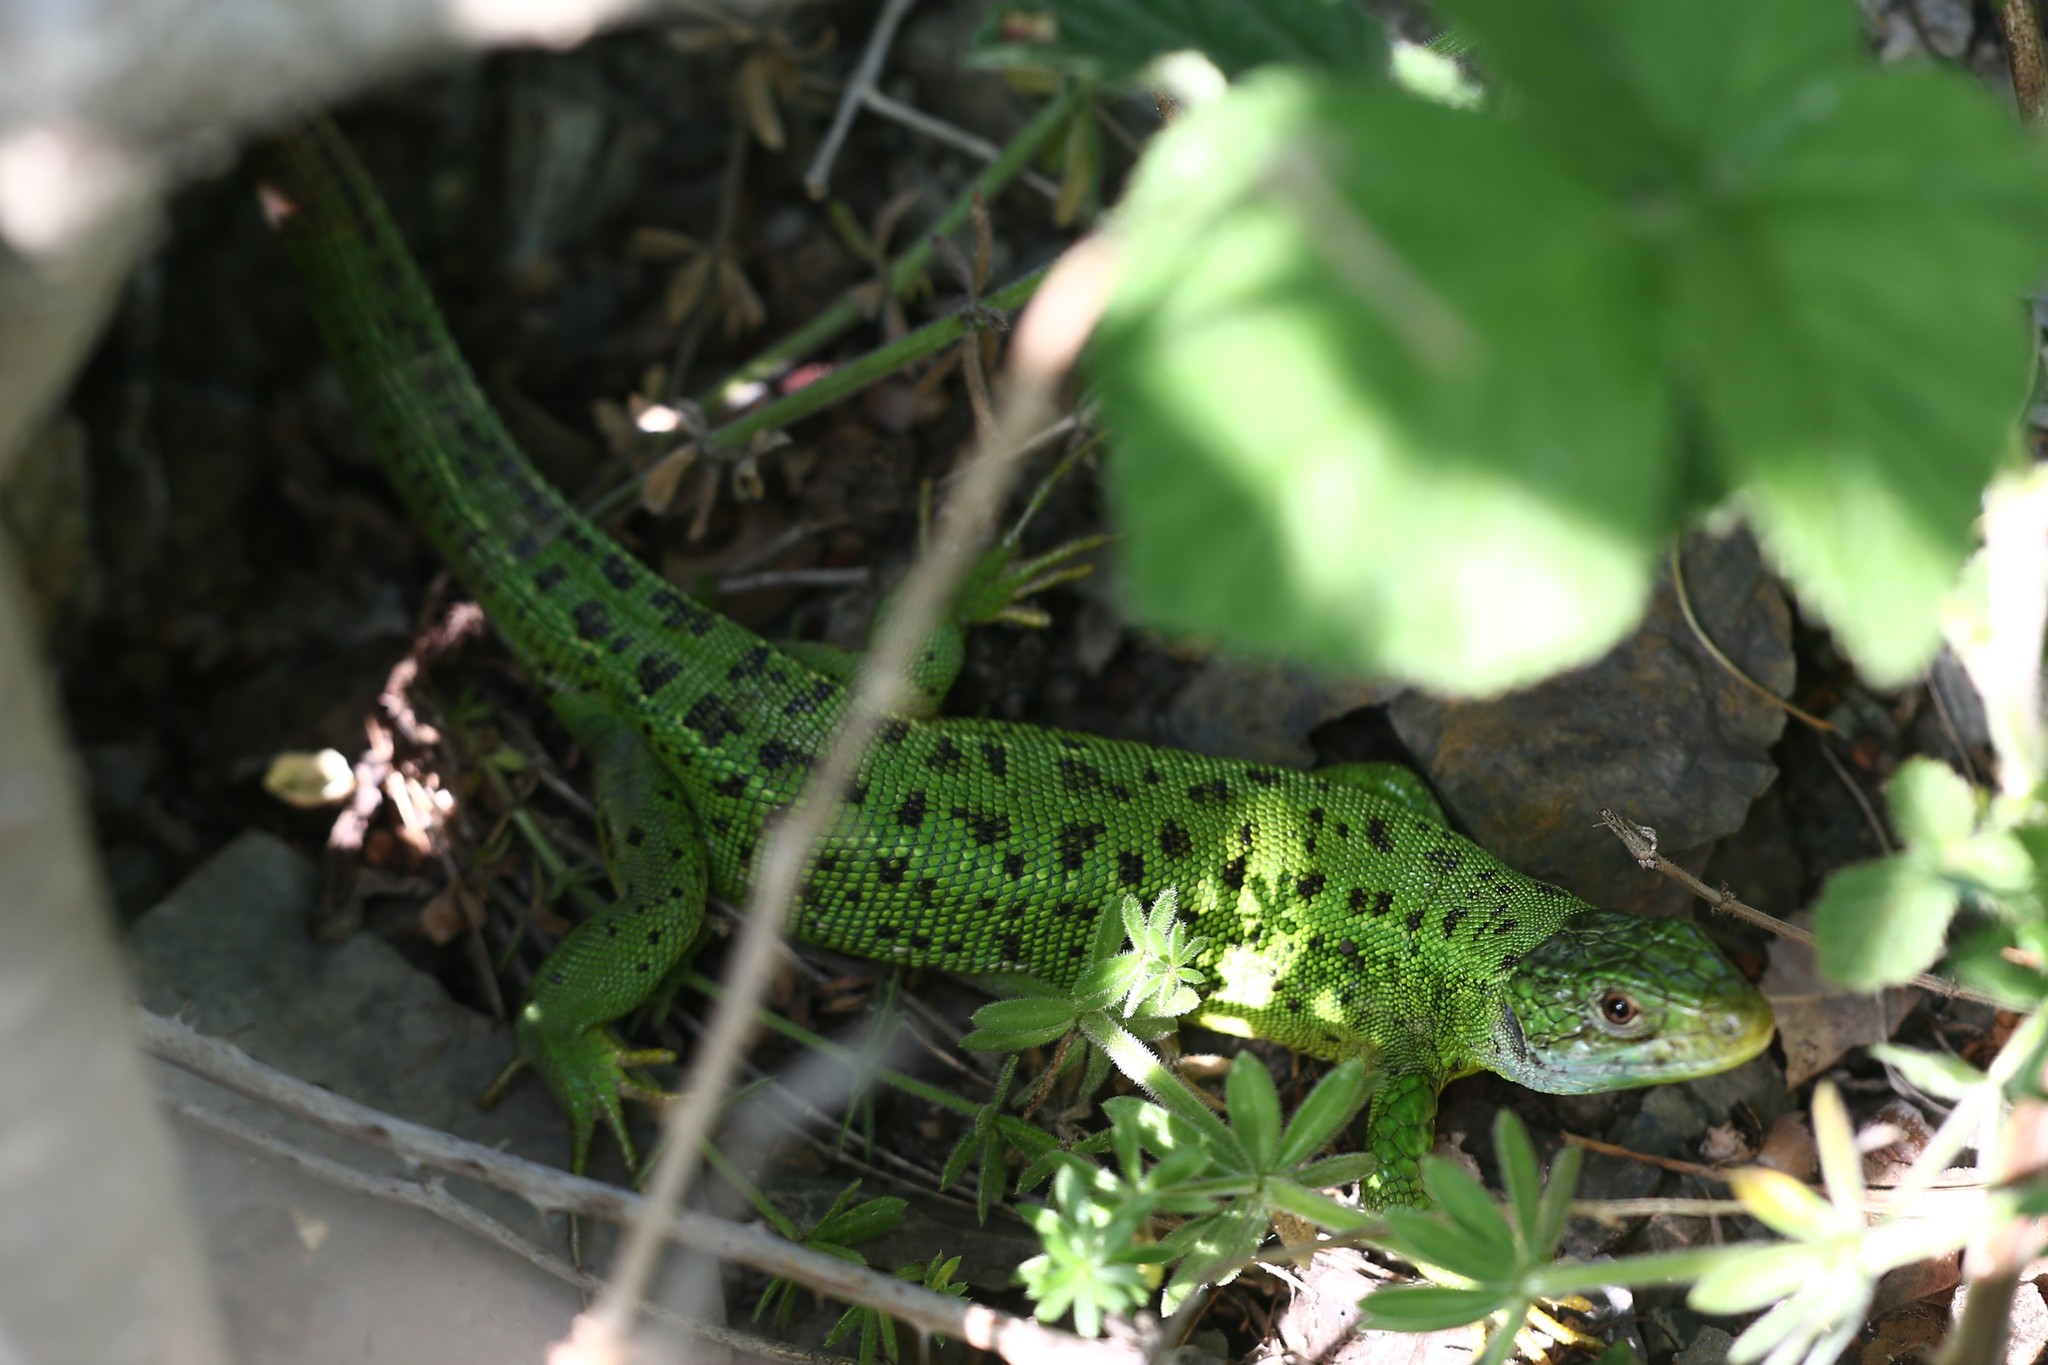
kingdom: Animalia
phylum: Chordata
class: Squamata
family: Lacertidae
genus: Lacerta
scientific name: Lacerta bilineata
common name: Western green lizard
